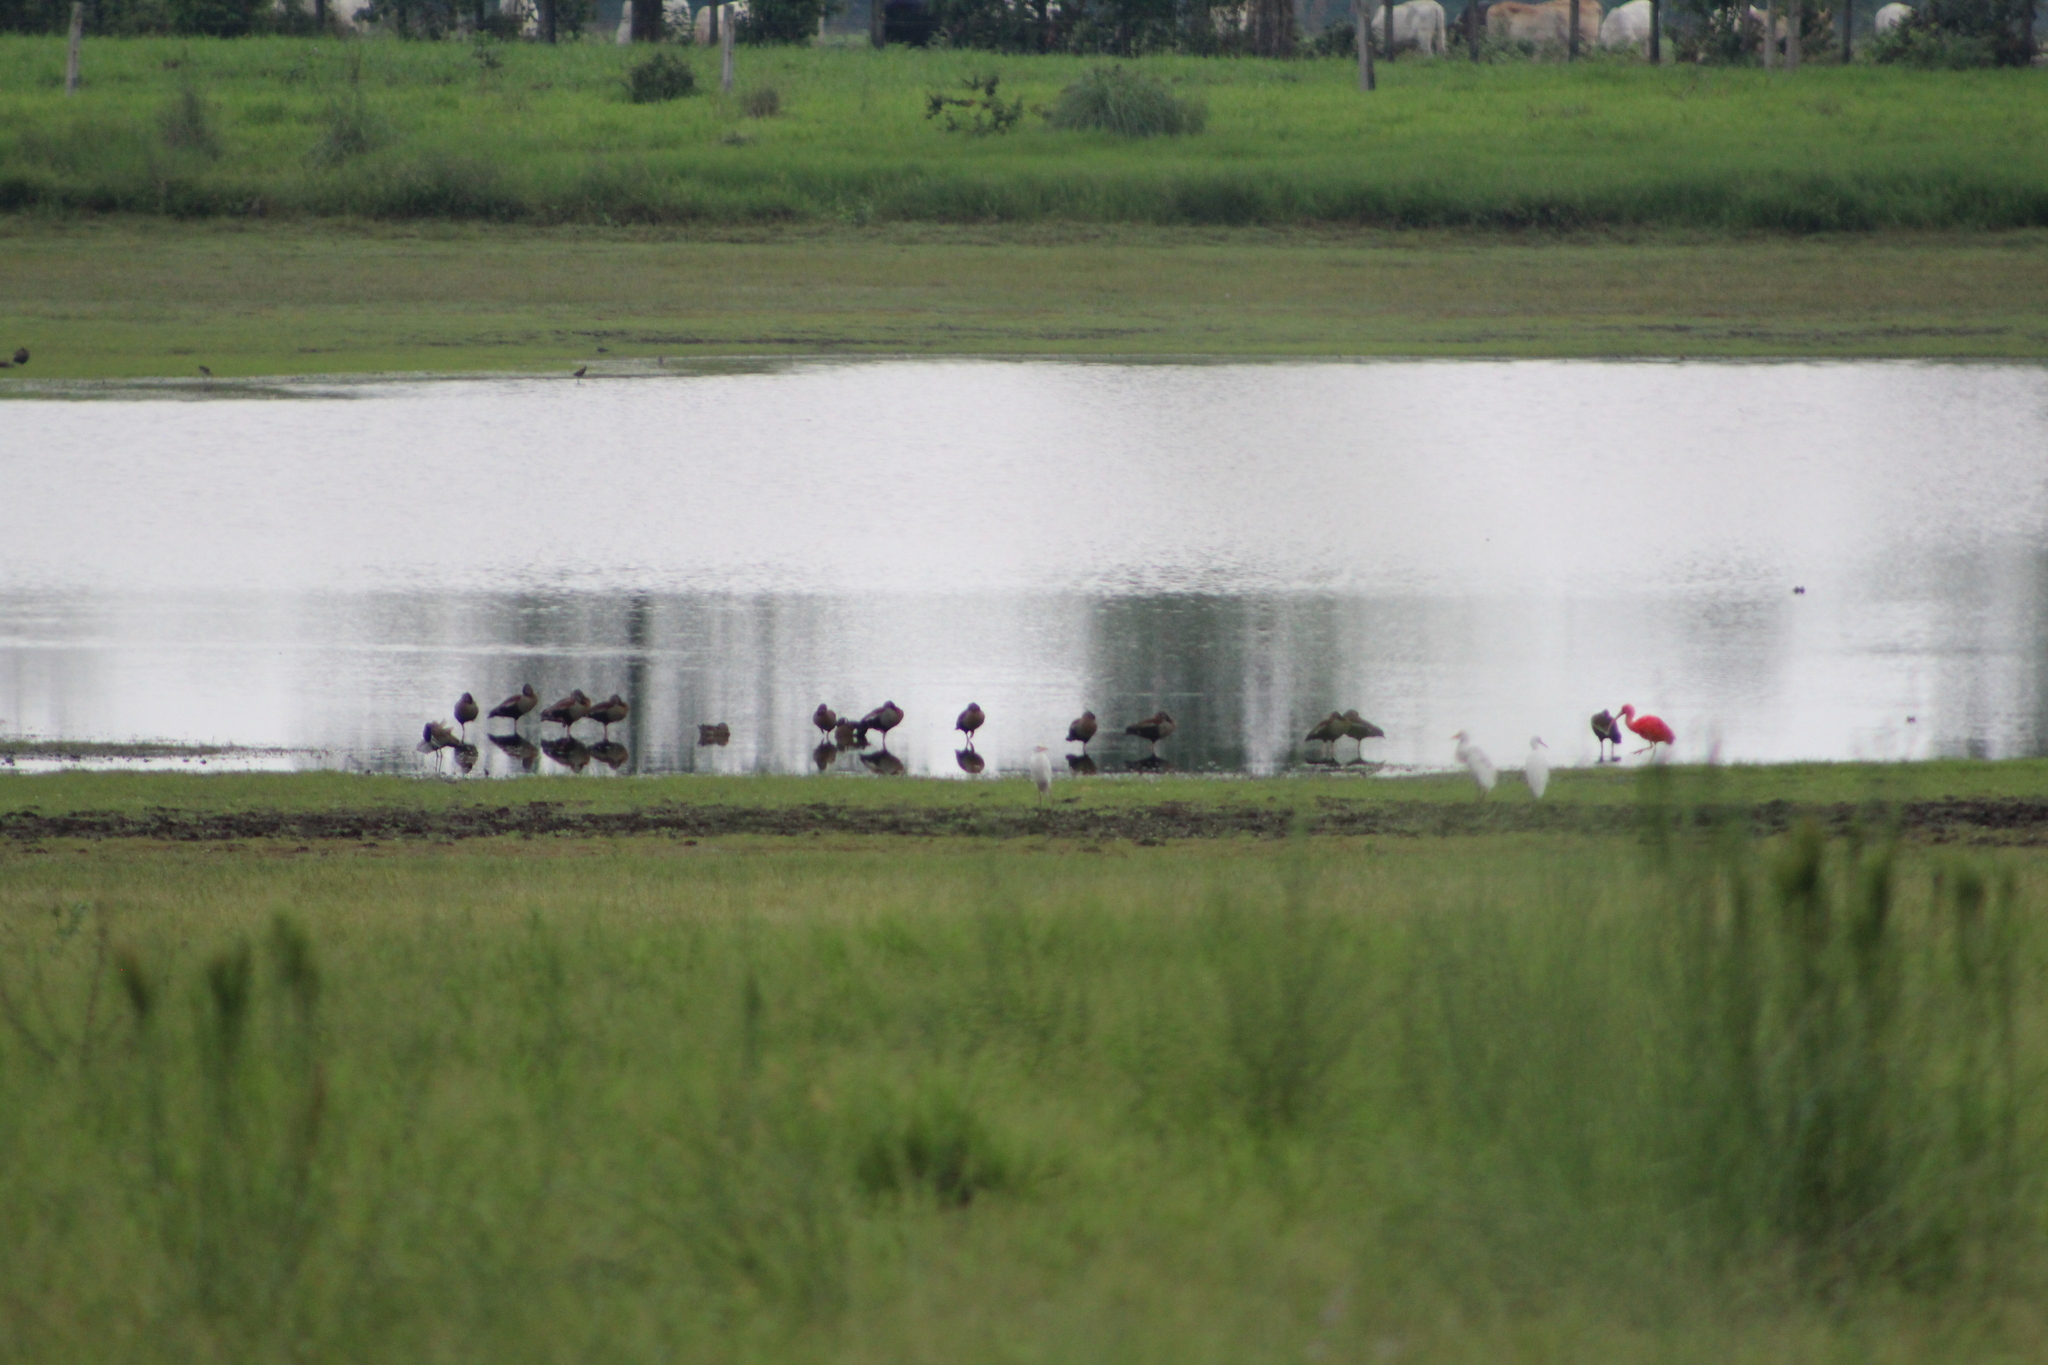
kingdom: Animalia
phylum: Chordata
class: Aves
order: Anseriformes
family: Anatidae
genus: Dendrocygna
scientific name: Dendrocygna autumnalis
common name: Black-bellied whistling duck
